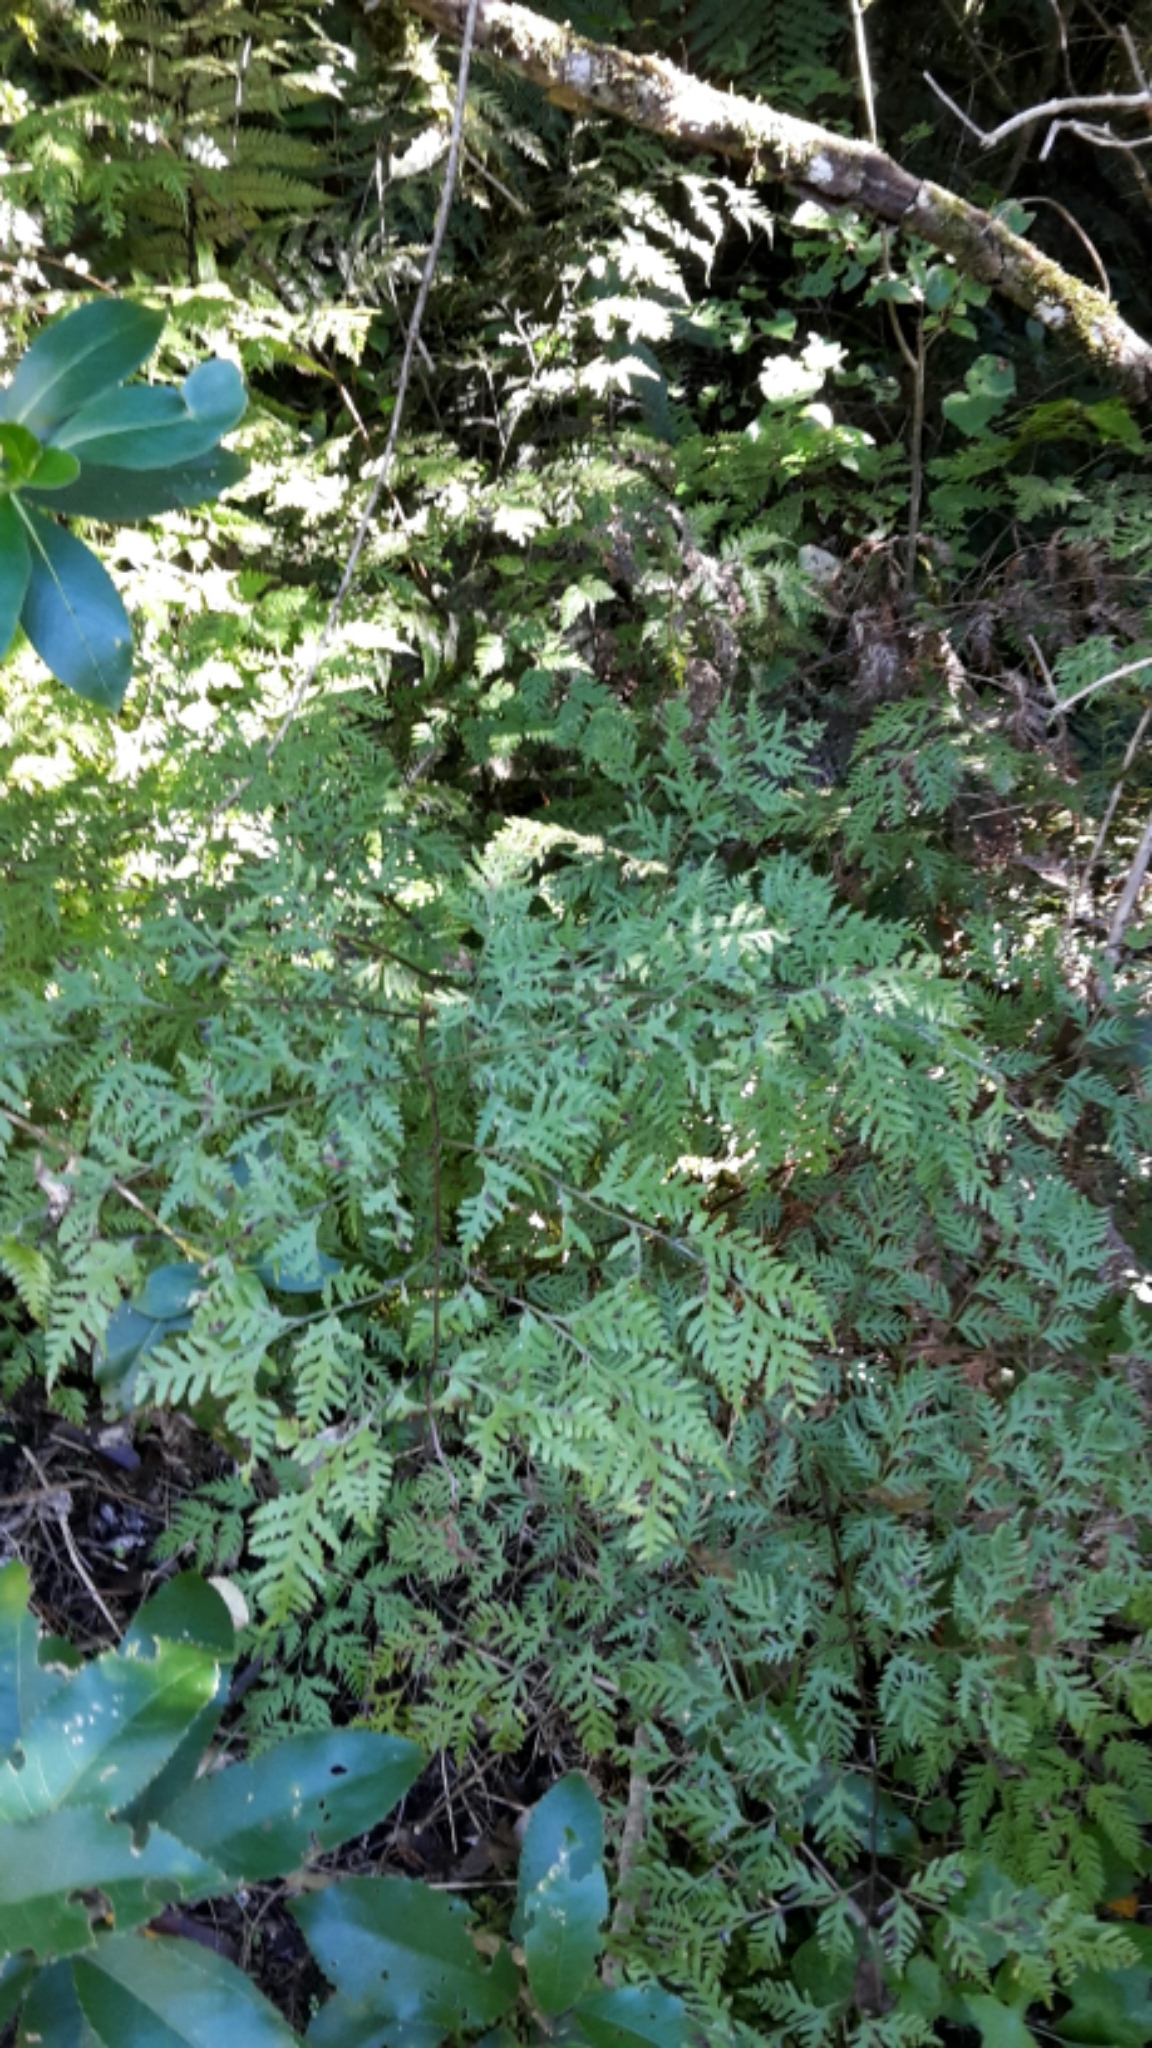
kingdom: Plantae
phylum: Tracheophyta
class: Polypodiopsida
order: Polypodiales
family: Pteridaceae
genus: Pteris
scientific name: Pteris macilenta
